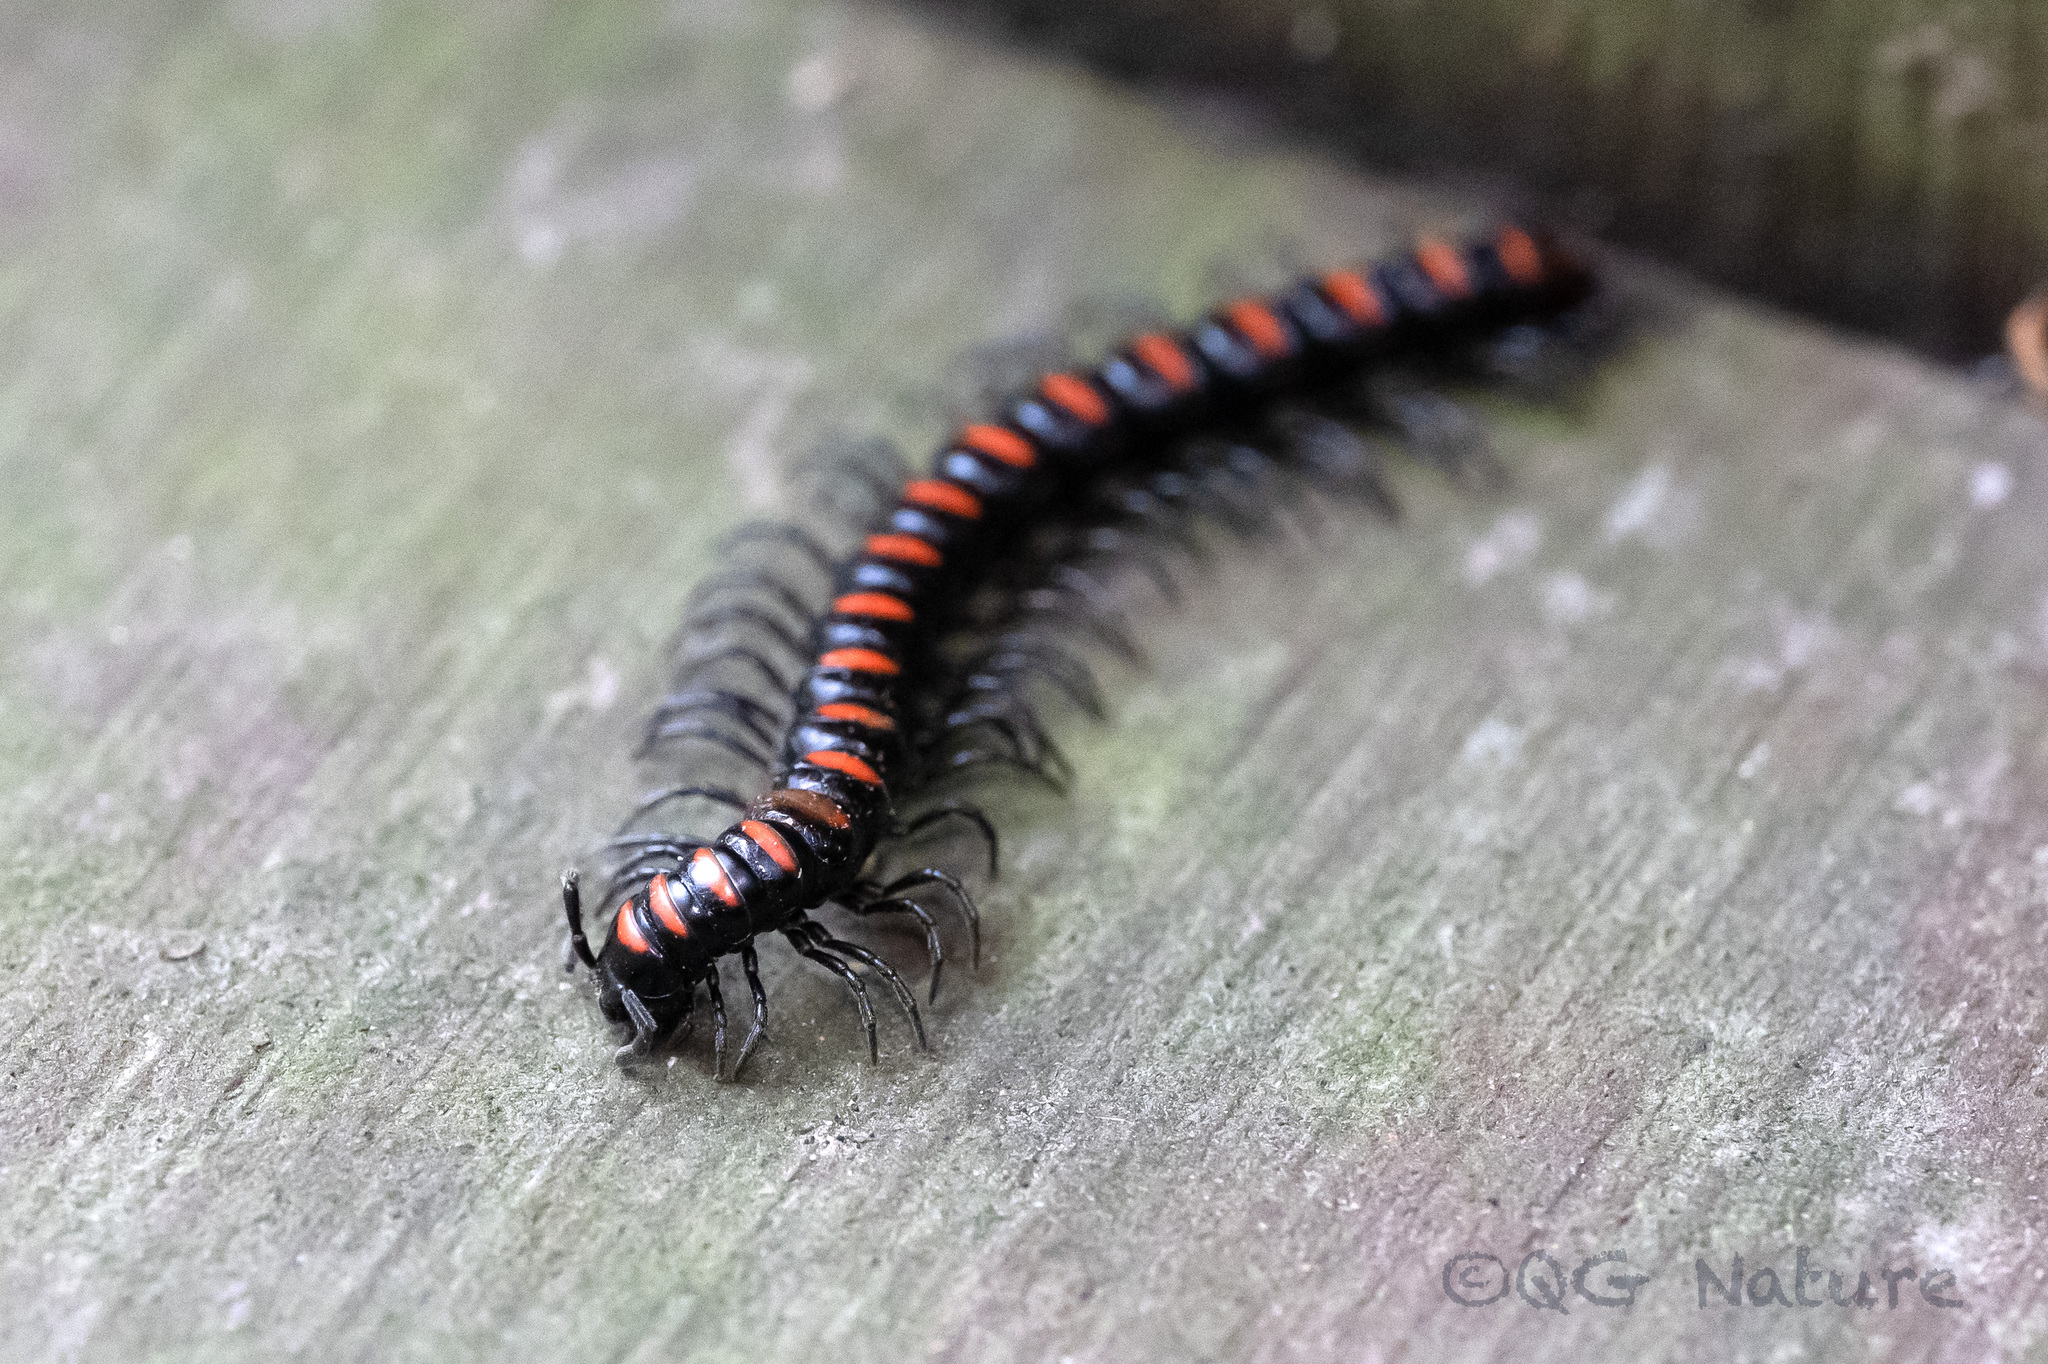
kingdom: Animalia
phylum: Arthropoda
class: Diplopoda
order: Polydesmida
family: Paradoxosomatidae
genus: Kronopolites
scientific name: Kronopolites swinhoei
